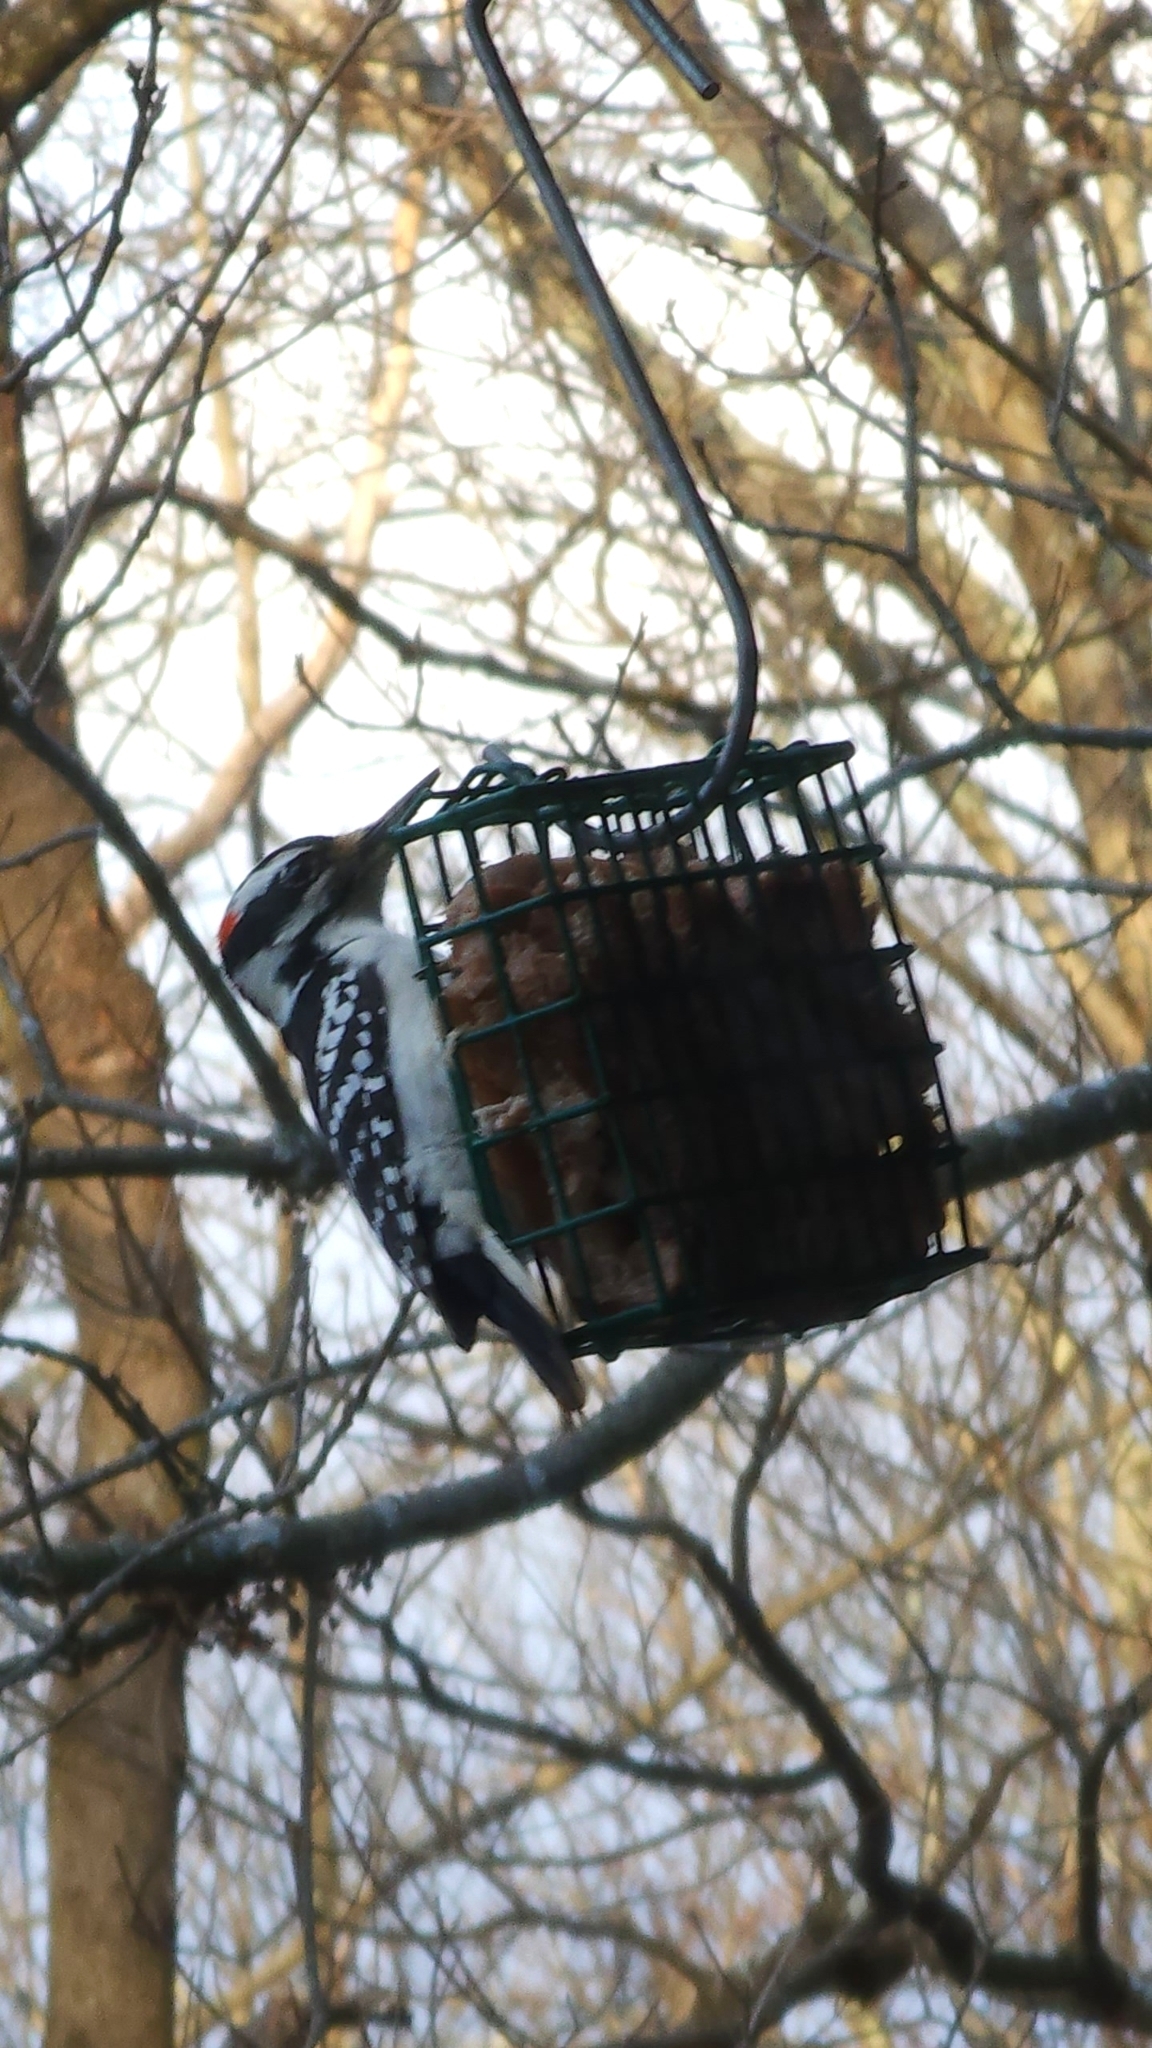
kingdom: Animalia
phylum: Chordata
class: Aves
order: Piciformes
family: Picidae
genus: Leuconotopicus
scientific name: Leuconotopicus villosus
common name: Hairy woodpecker
